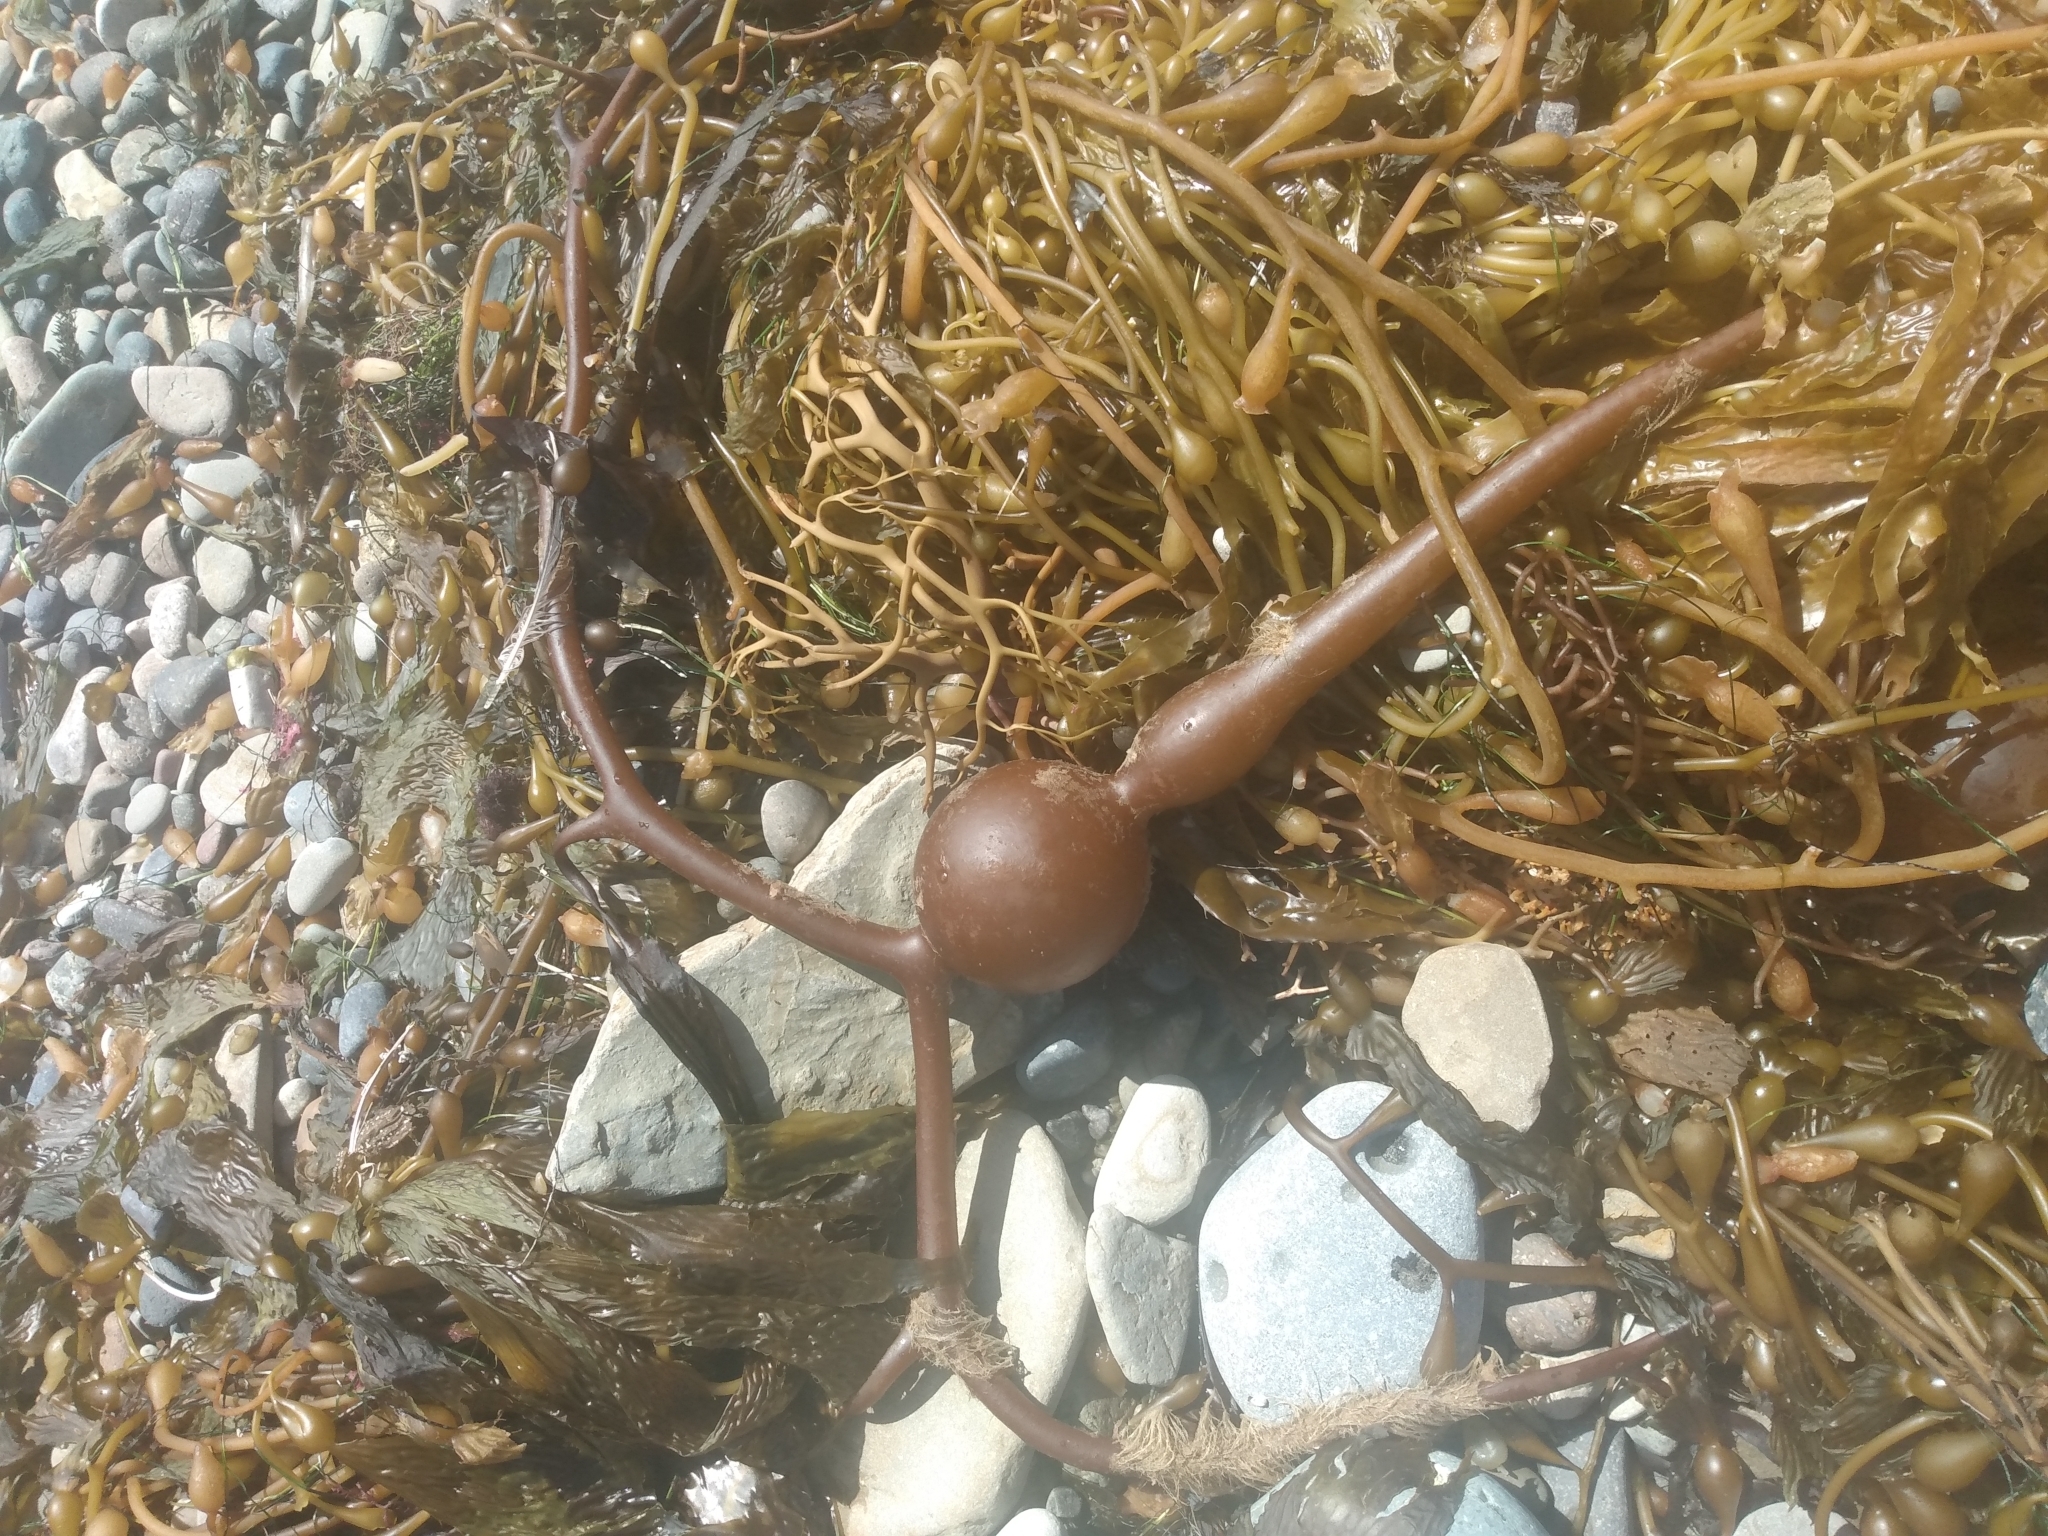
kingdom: Chromista
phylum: Ochrophyta
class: Phaeophyceae
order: Laminariales
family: Laminariaceae
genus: Pelagophycus
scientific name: Pelagophycus porra
